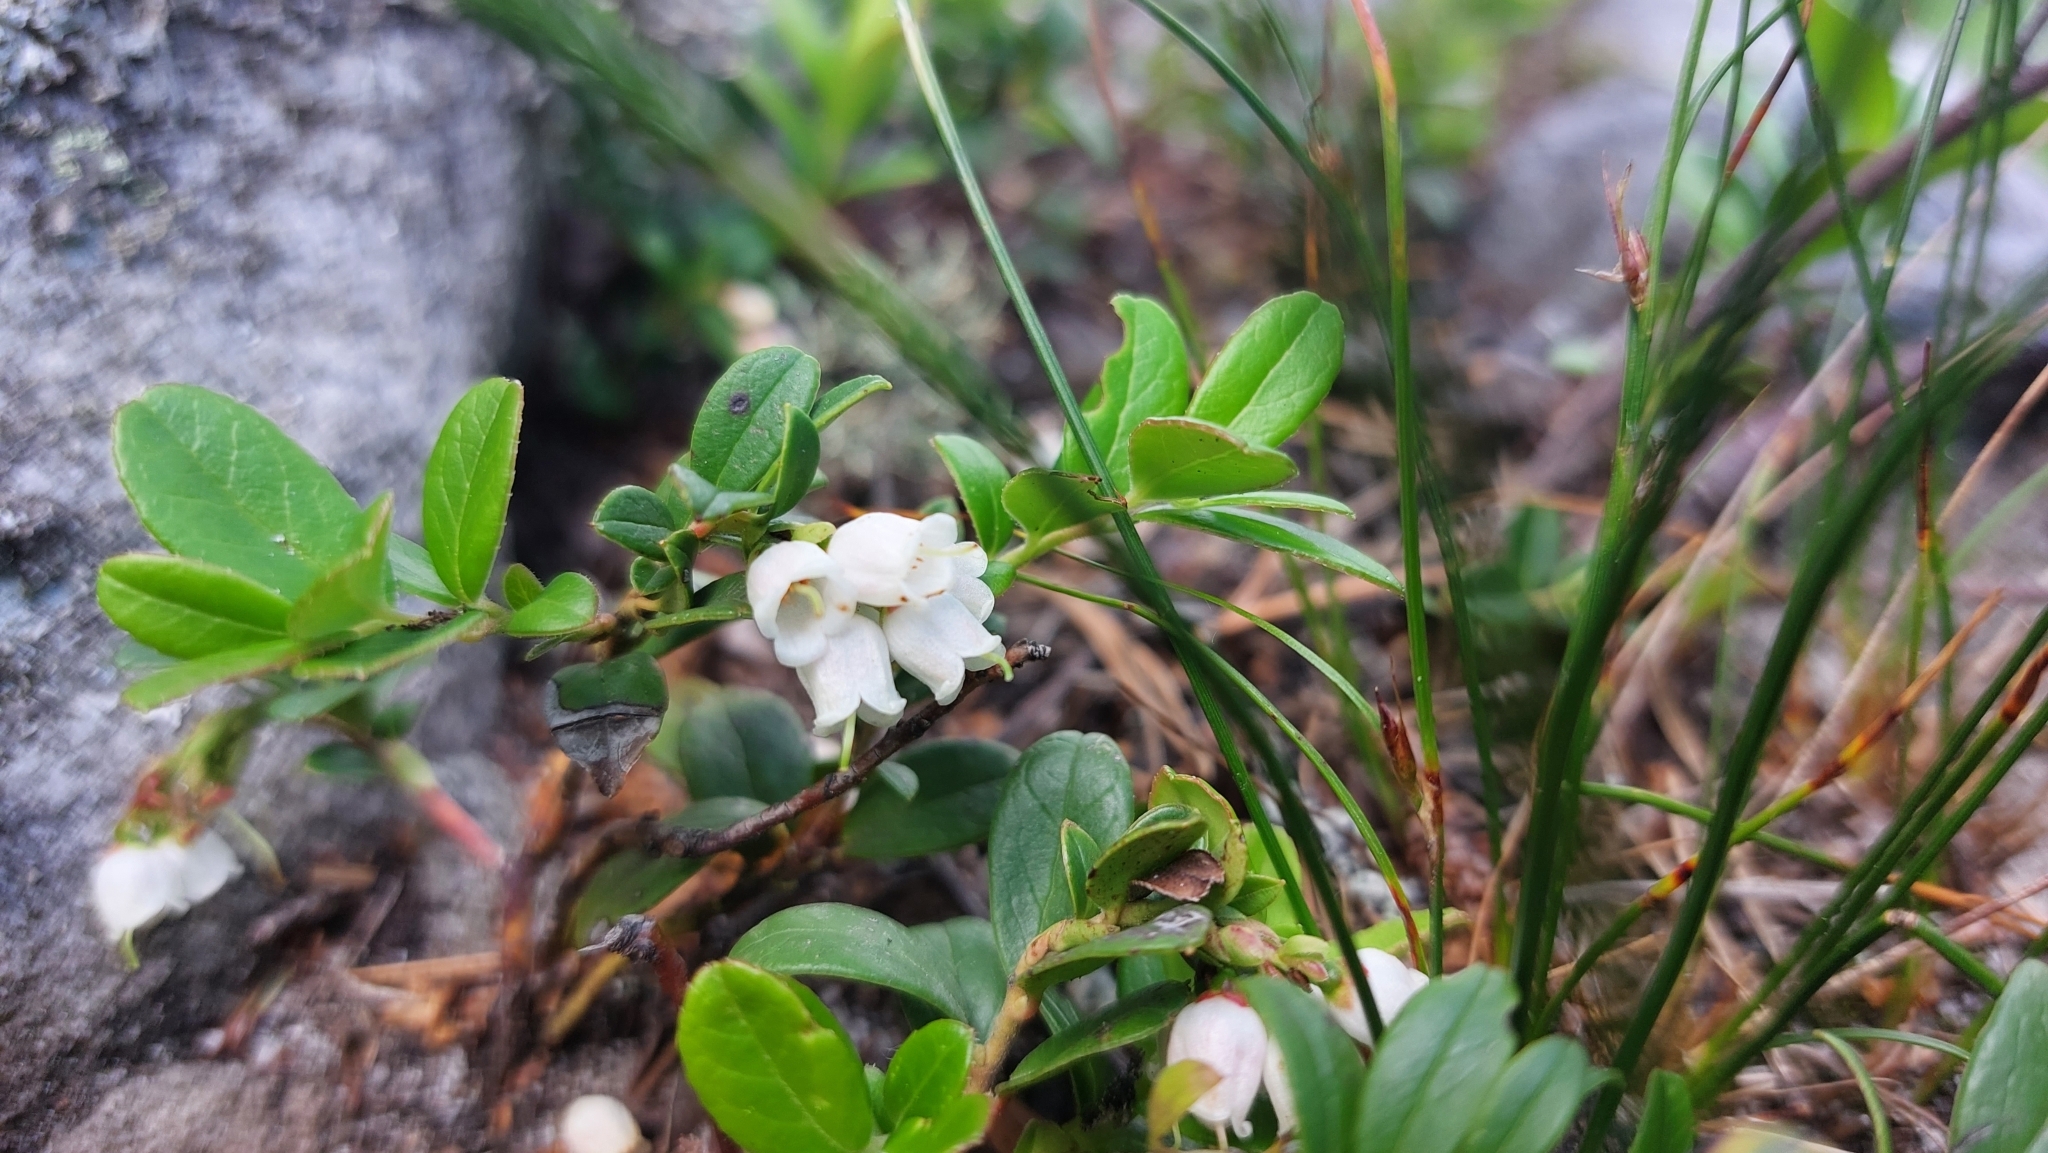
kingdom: Plantae
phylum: Tracheophyta
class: Magnoliopsida
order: Ericales
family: Ericaceae
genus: Vaccinium
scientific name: Vaccinium vitis-idaea
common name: Cowberry
